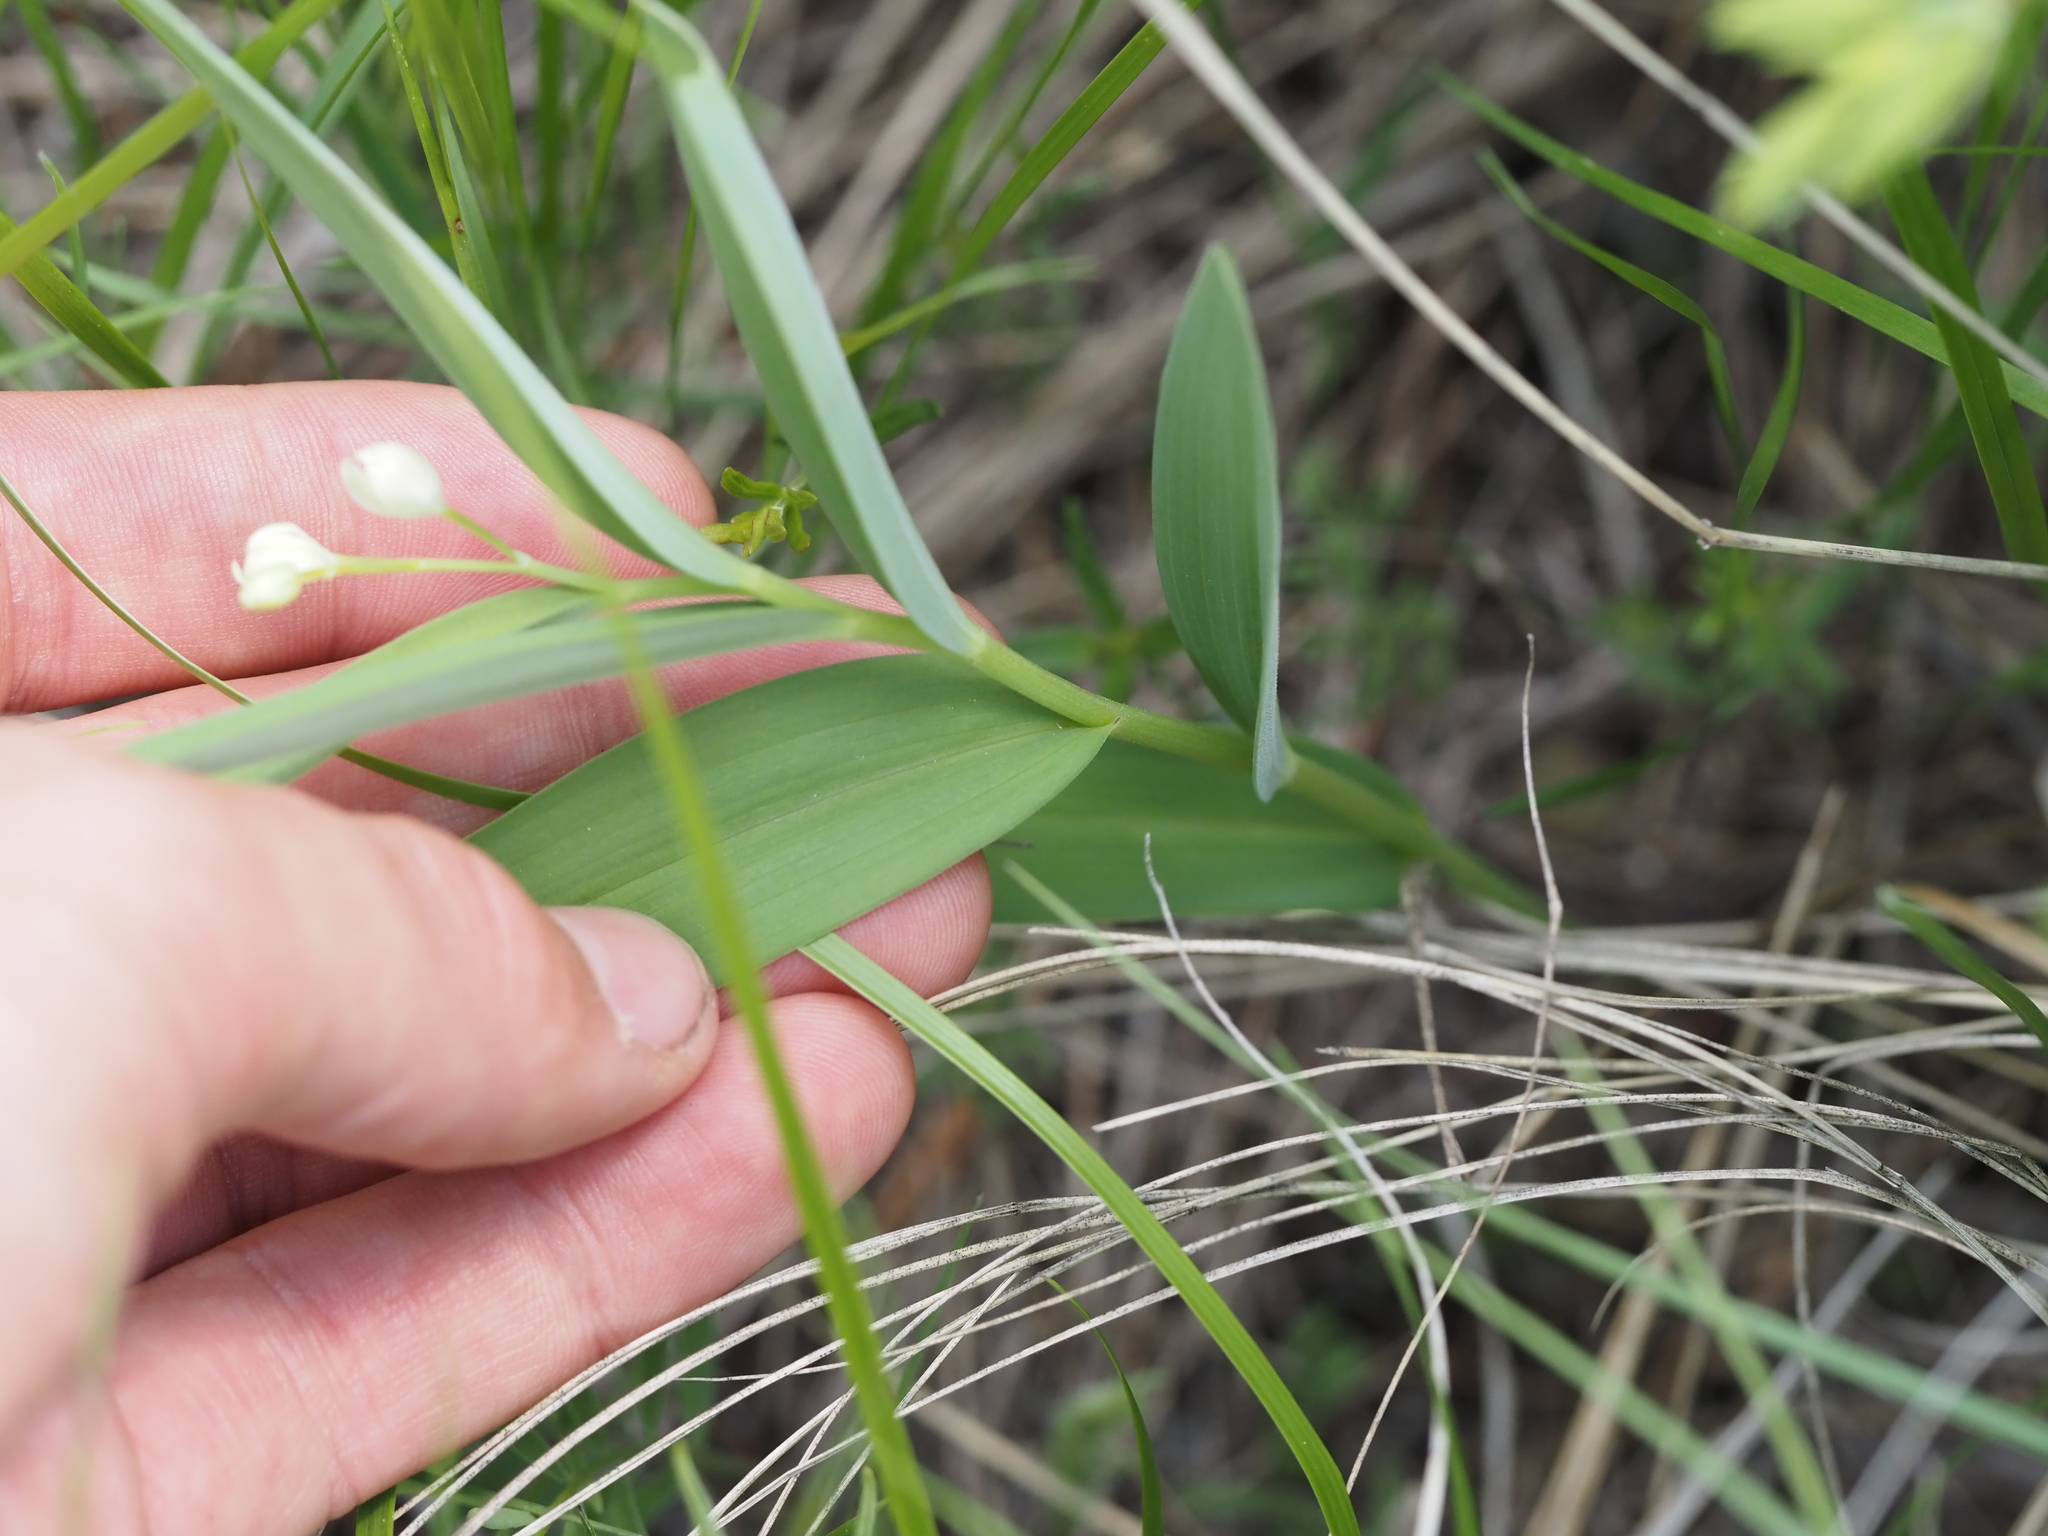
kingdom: Plantae
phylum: Tracheophyta
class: Liliopsida
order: Asparagales
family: Asparagaceae
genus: Maianthemum
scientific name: Maianthemum stellatum
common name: Little false solomon's seal
